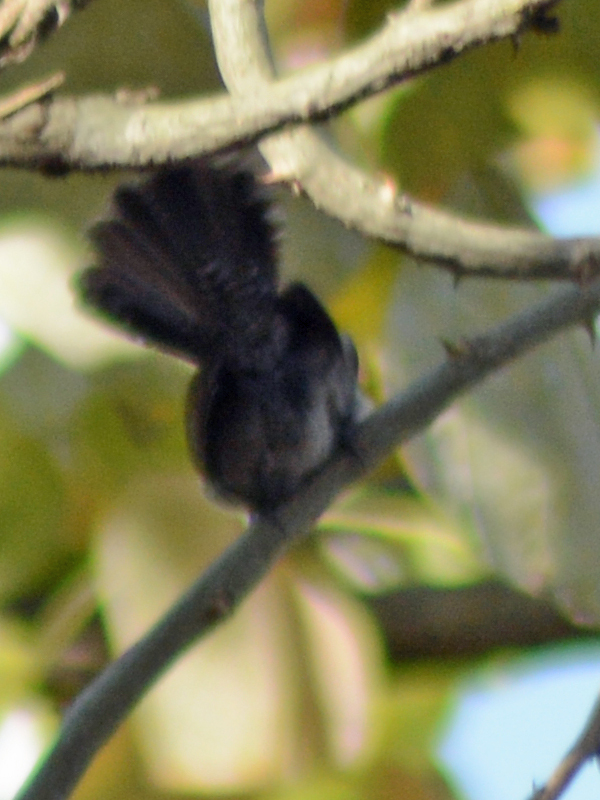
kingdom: Animalia
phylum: Chordata
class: Aves
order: Passeriformes
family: Troglodytidae
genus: Thryomanes
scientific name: Thryomanes bewickii
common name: Bewick's wren
